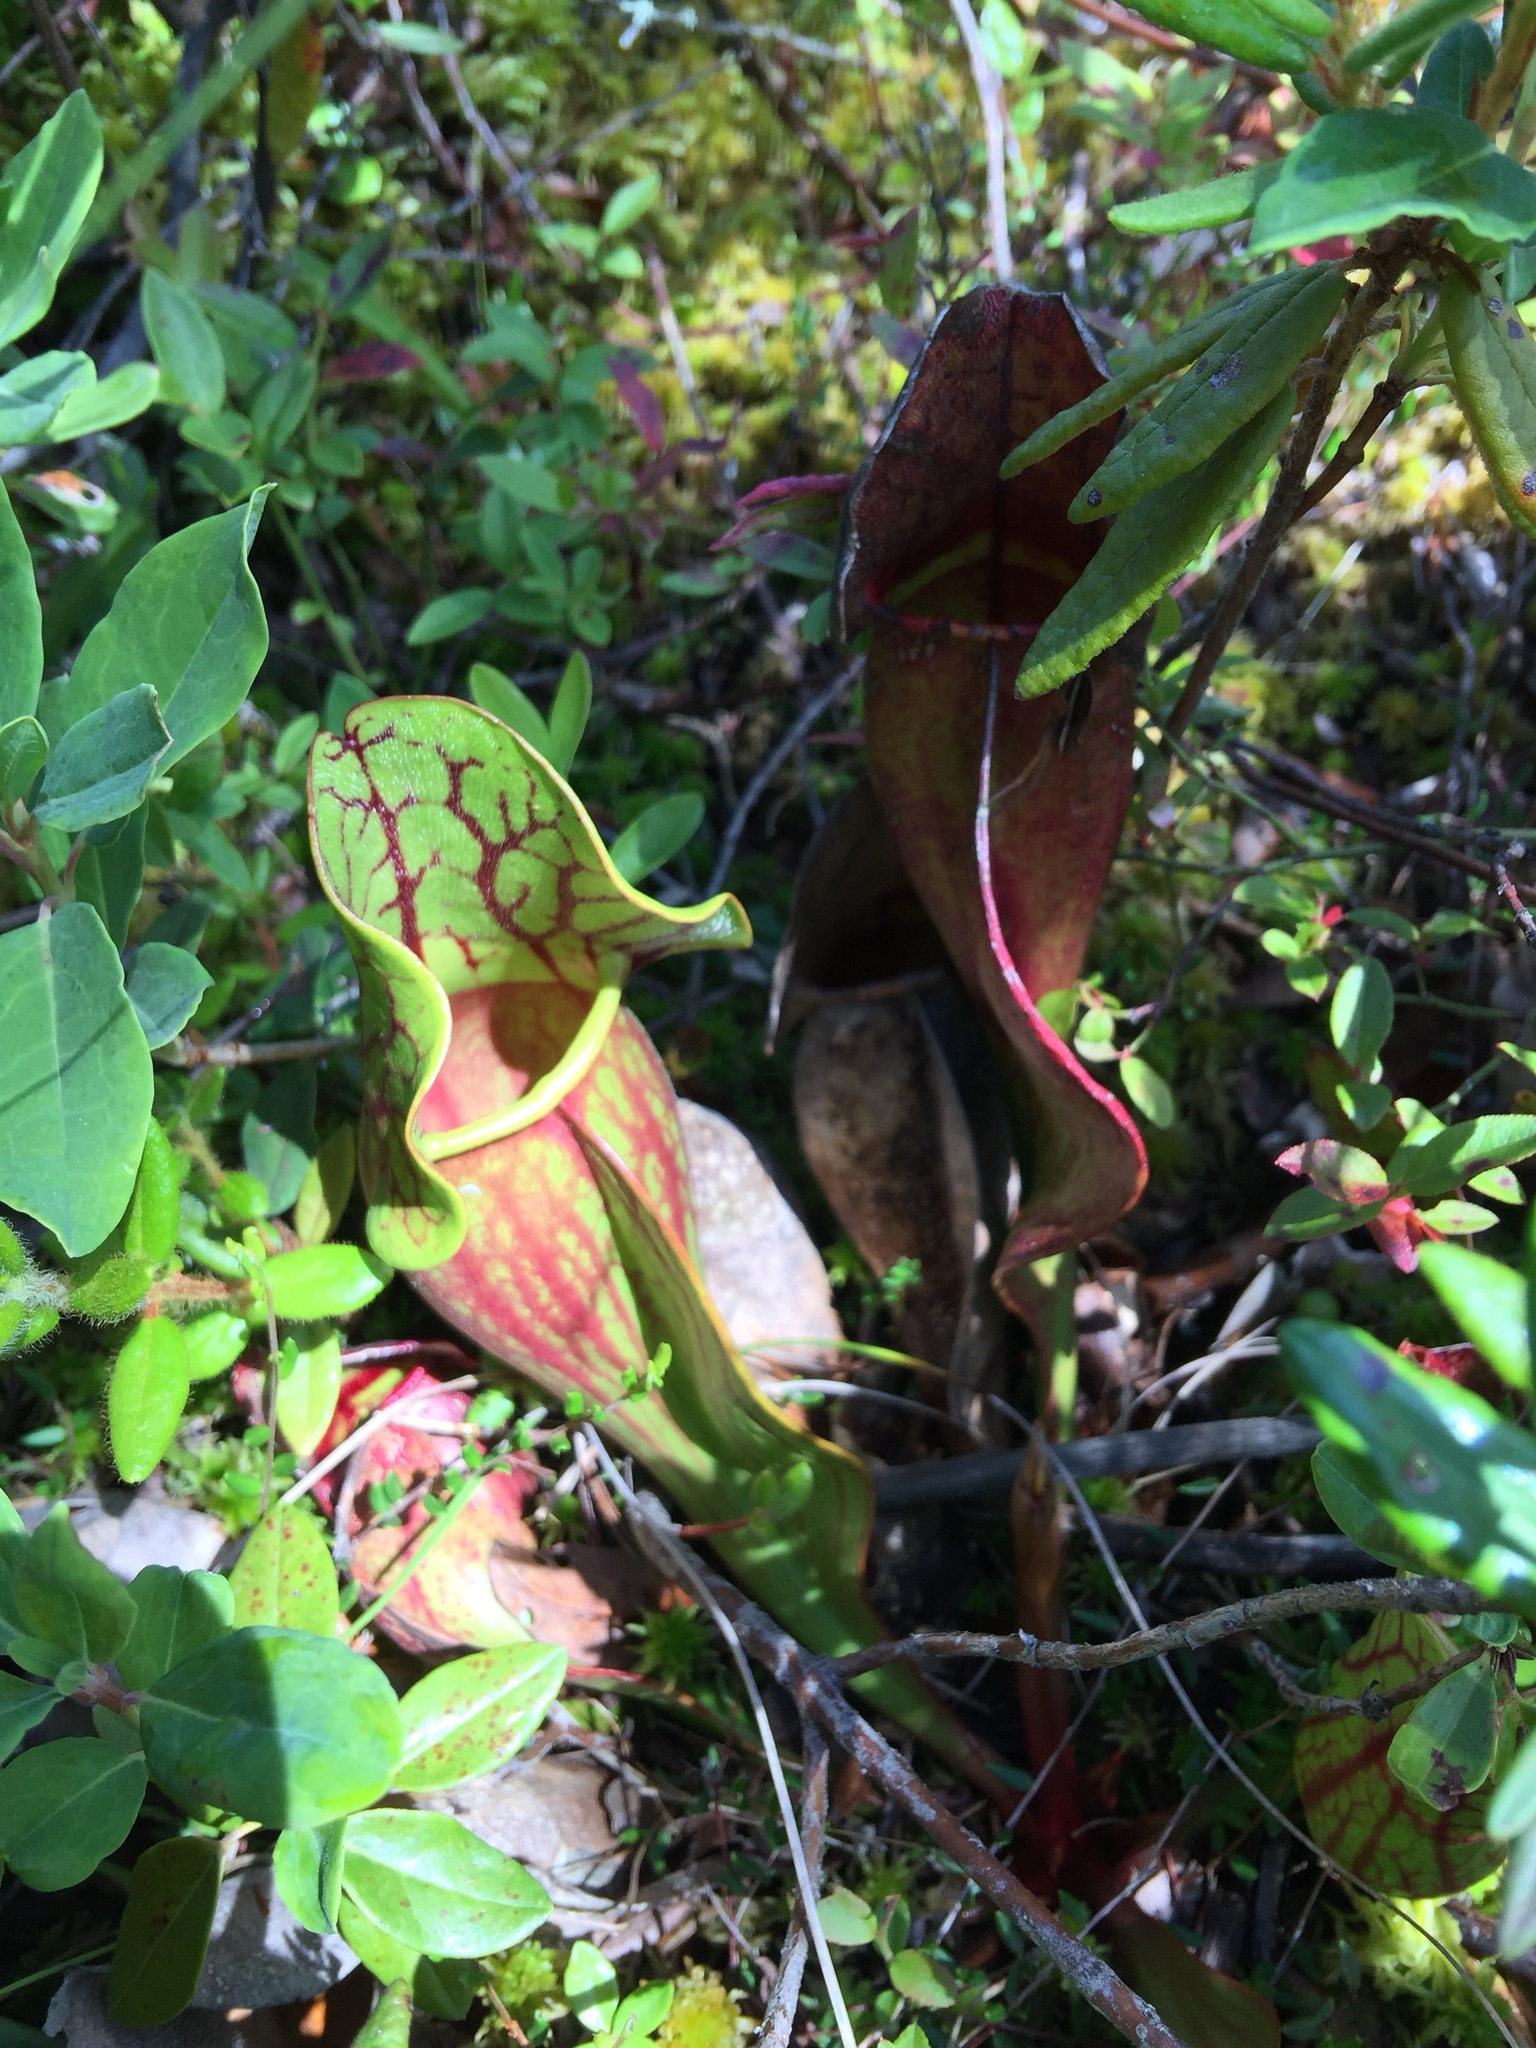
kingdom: Plantae
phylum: Tracheophyta
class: Magnoliopsida
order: Ericales
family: Sarraceniaceae
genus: Sarracenia
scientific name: Sarracenia purpurea
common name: Pitcherplant
